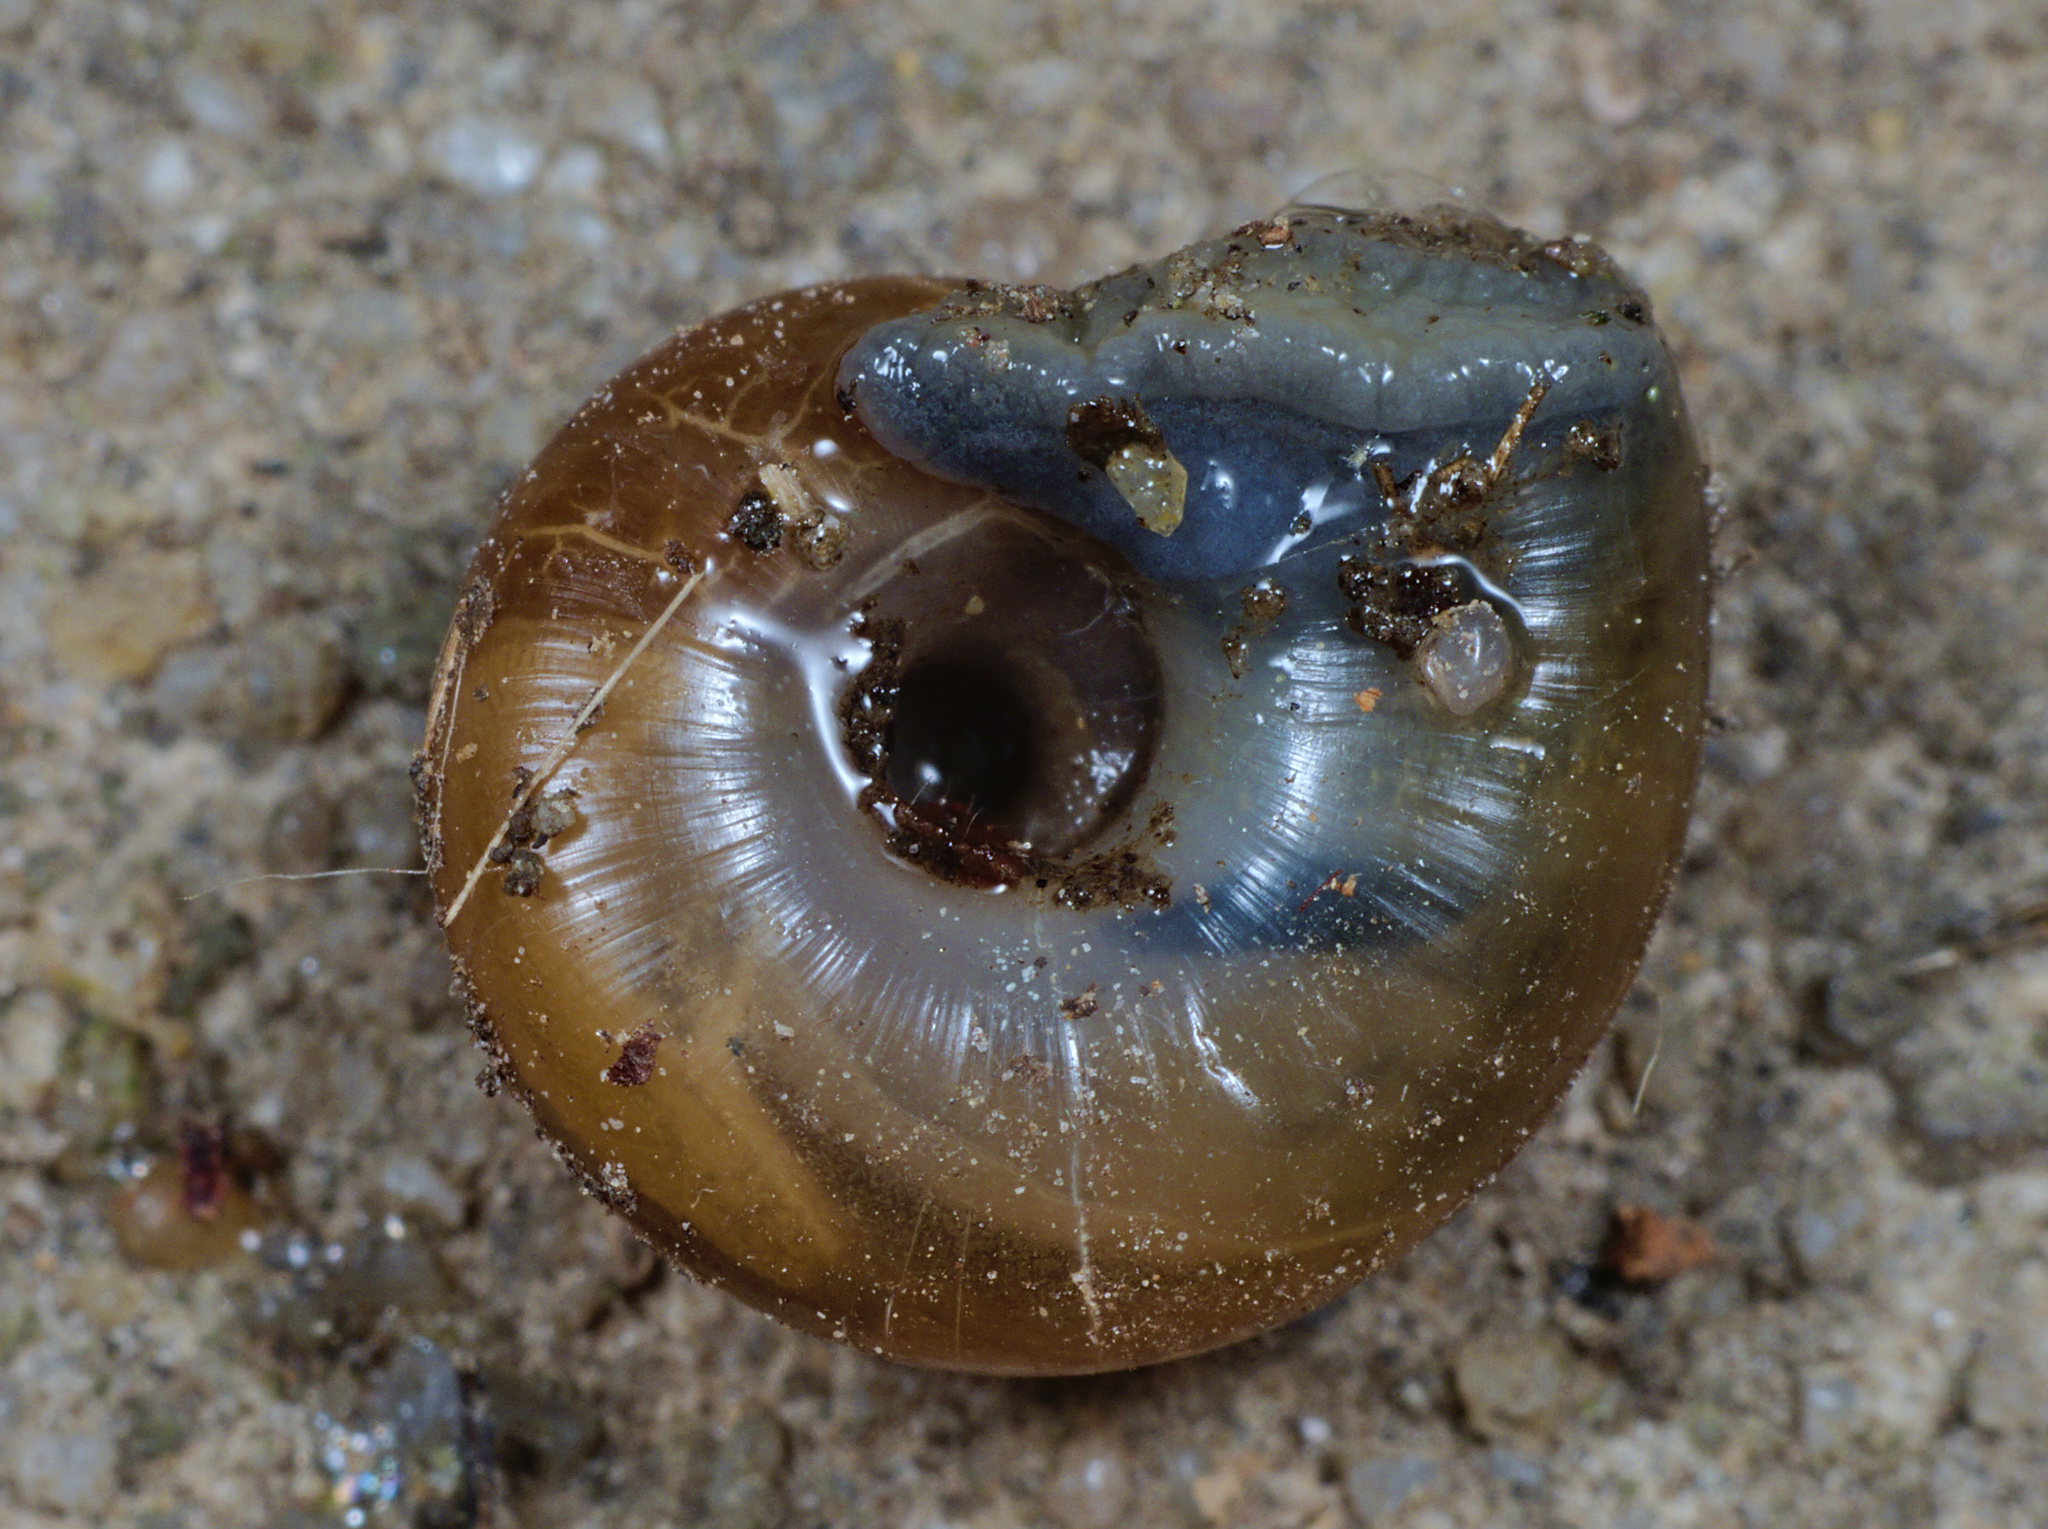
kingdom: Animalia
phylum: Mollusca
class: Gastropoda
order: Stylommatophora
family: Gastrodontidae
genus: Aegopinella
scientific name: Aegopinella nitidula
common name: Smooth glass snail
